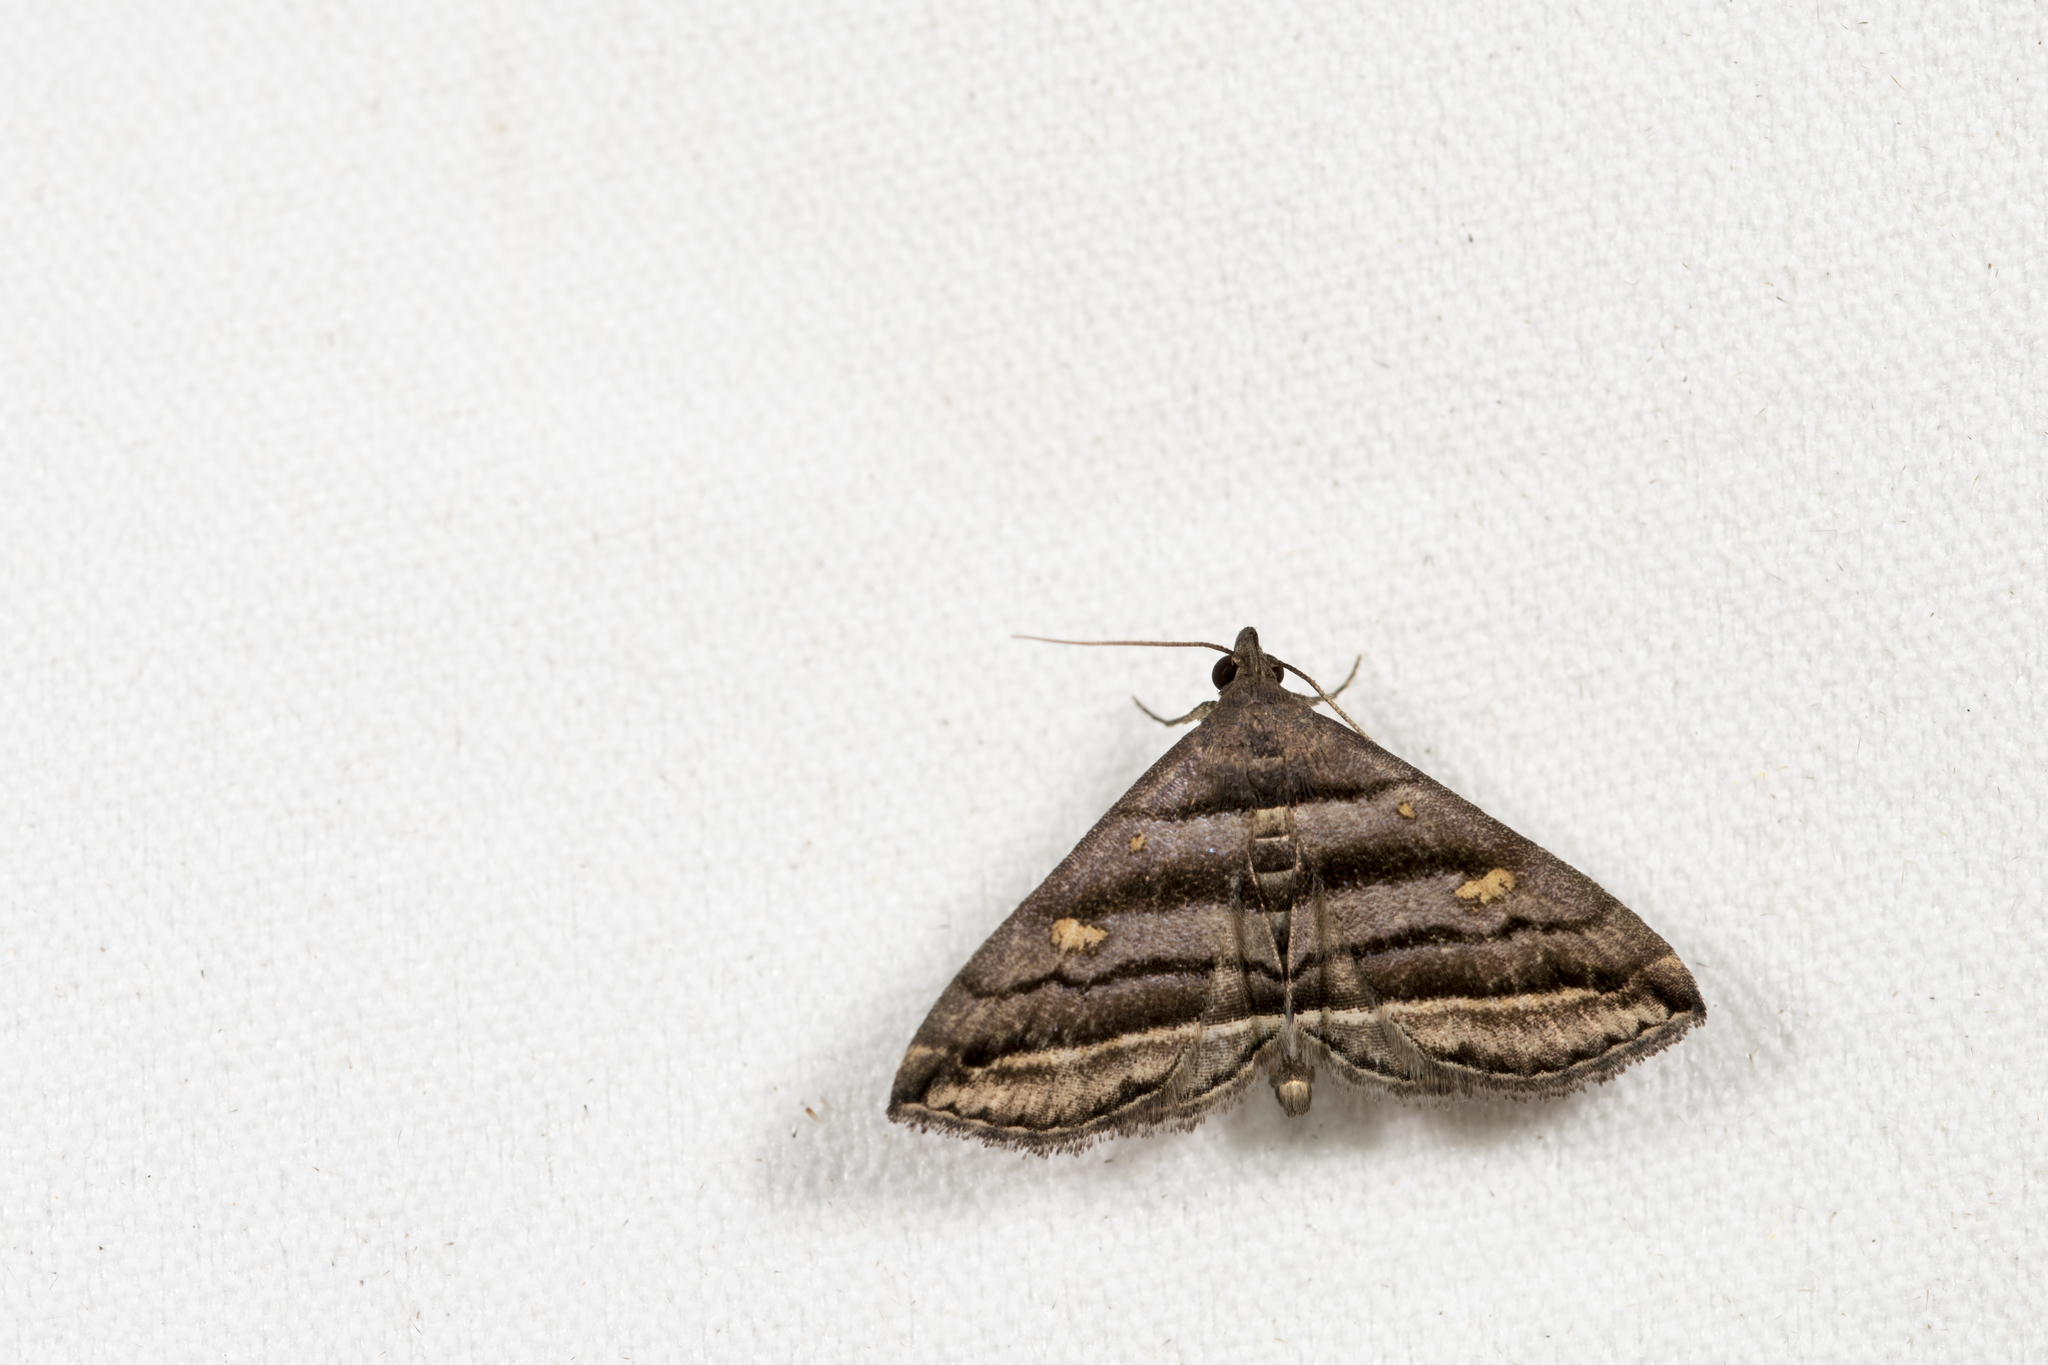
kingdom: Animalia
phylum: Arthropoda
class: Insecta
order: Lepidoptera
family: Erebidae
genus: Paracolax
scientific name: Paracolax pryeri
